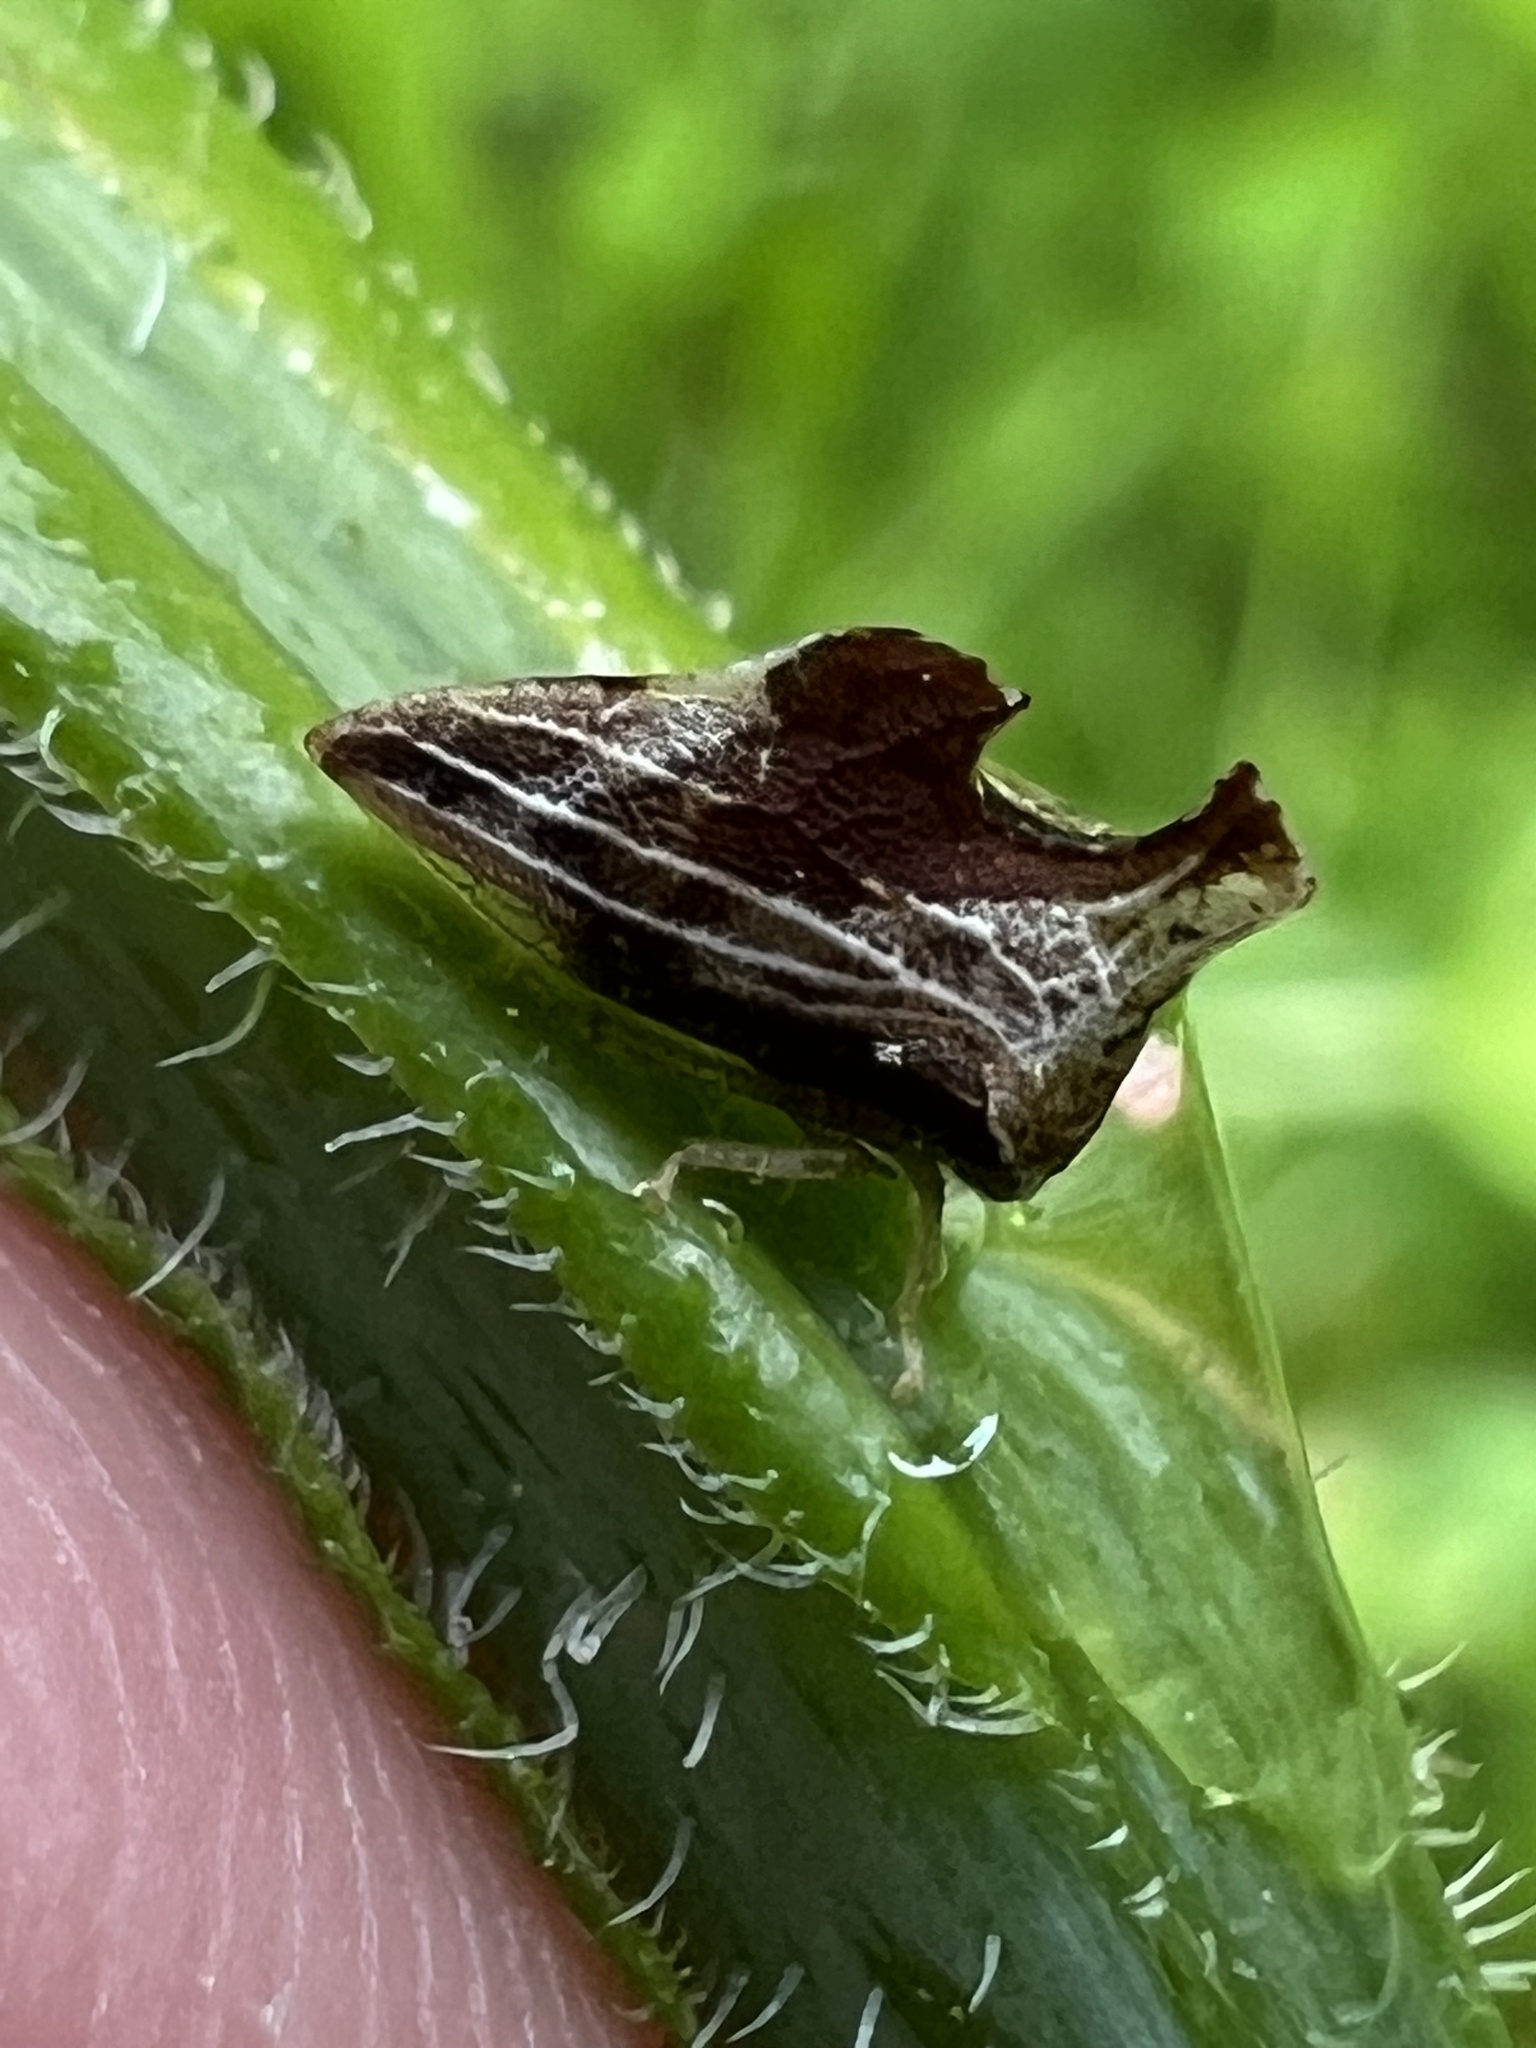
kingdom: Animalia
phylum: Arthropoda
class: Insecta
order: Hemiptera
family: Membracidae
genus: Entylia
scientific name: Entylia carinata
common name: Keeled treehopper
